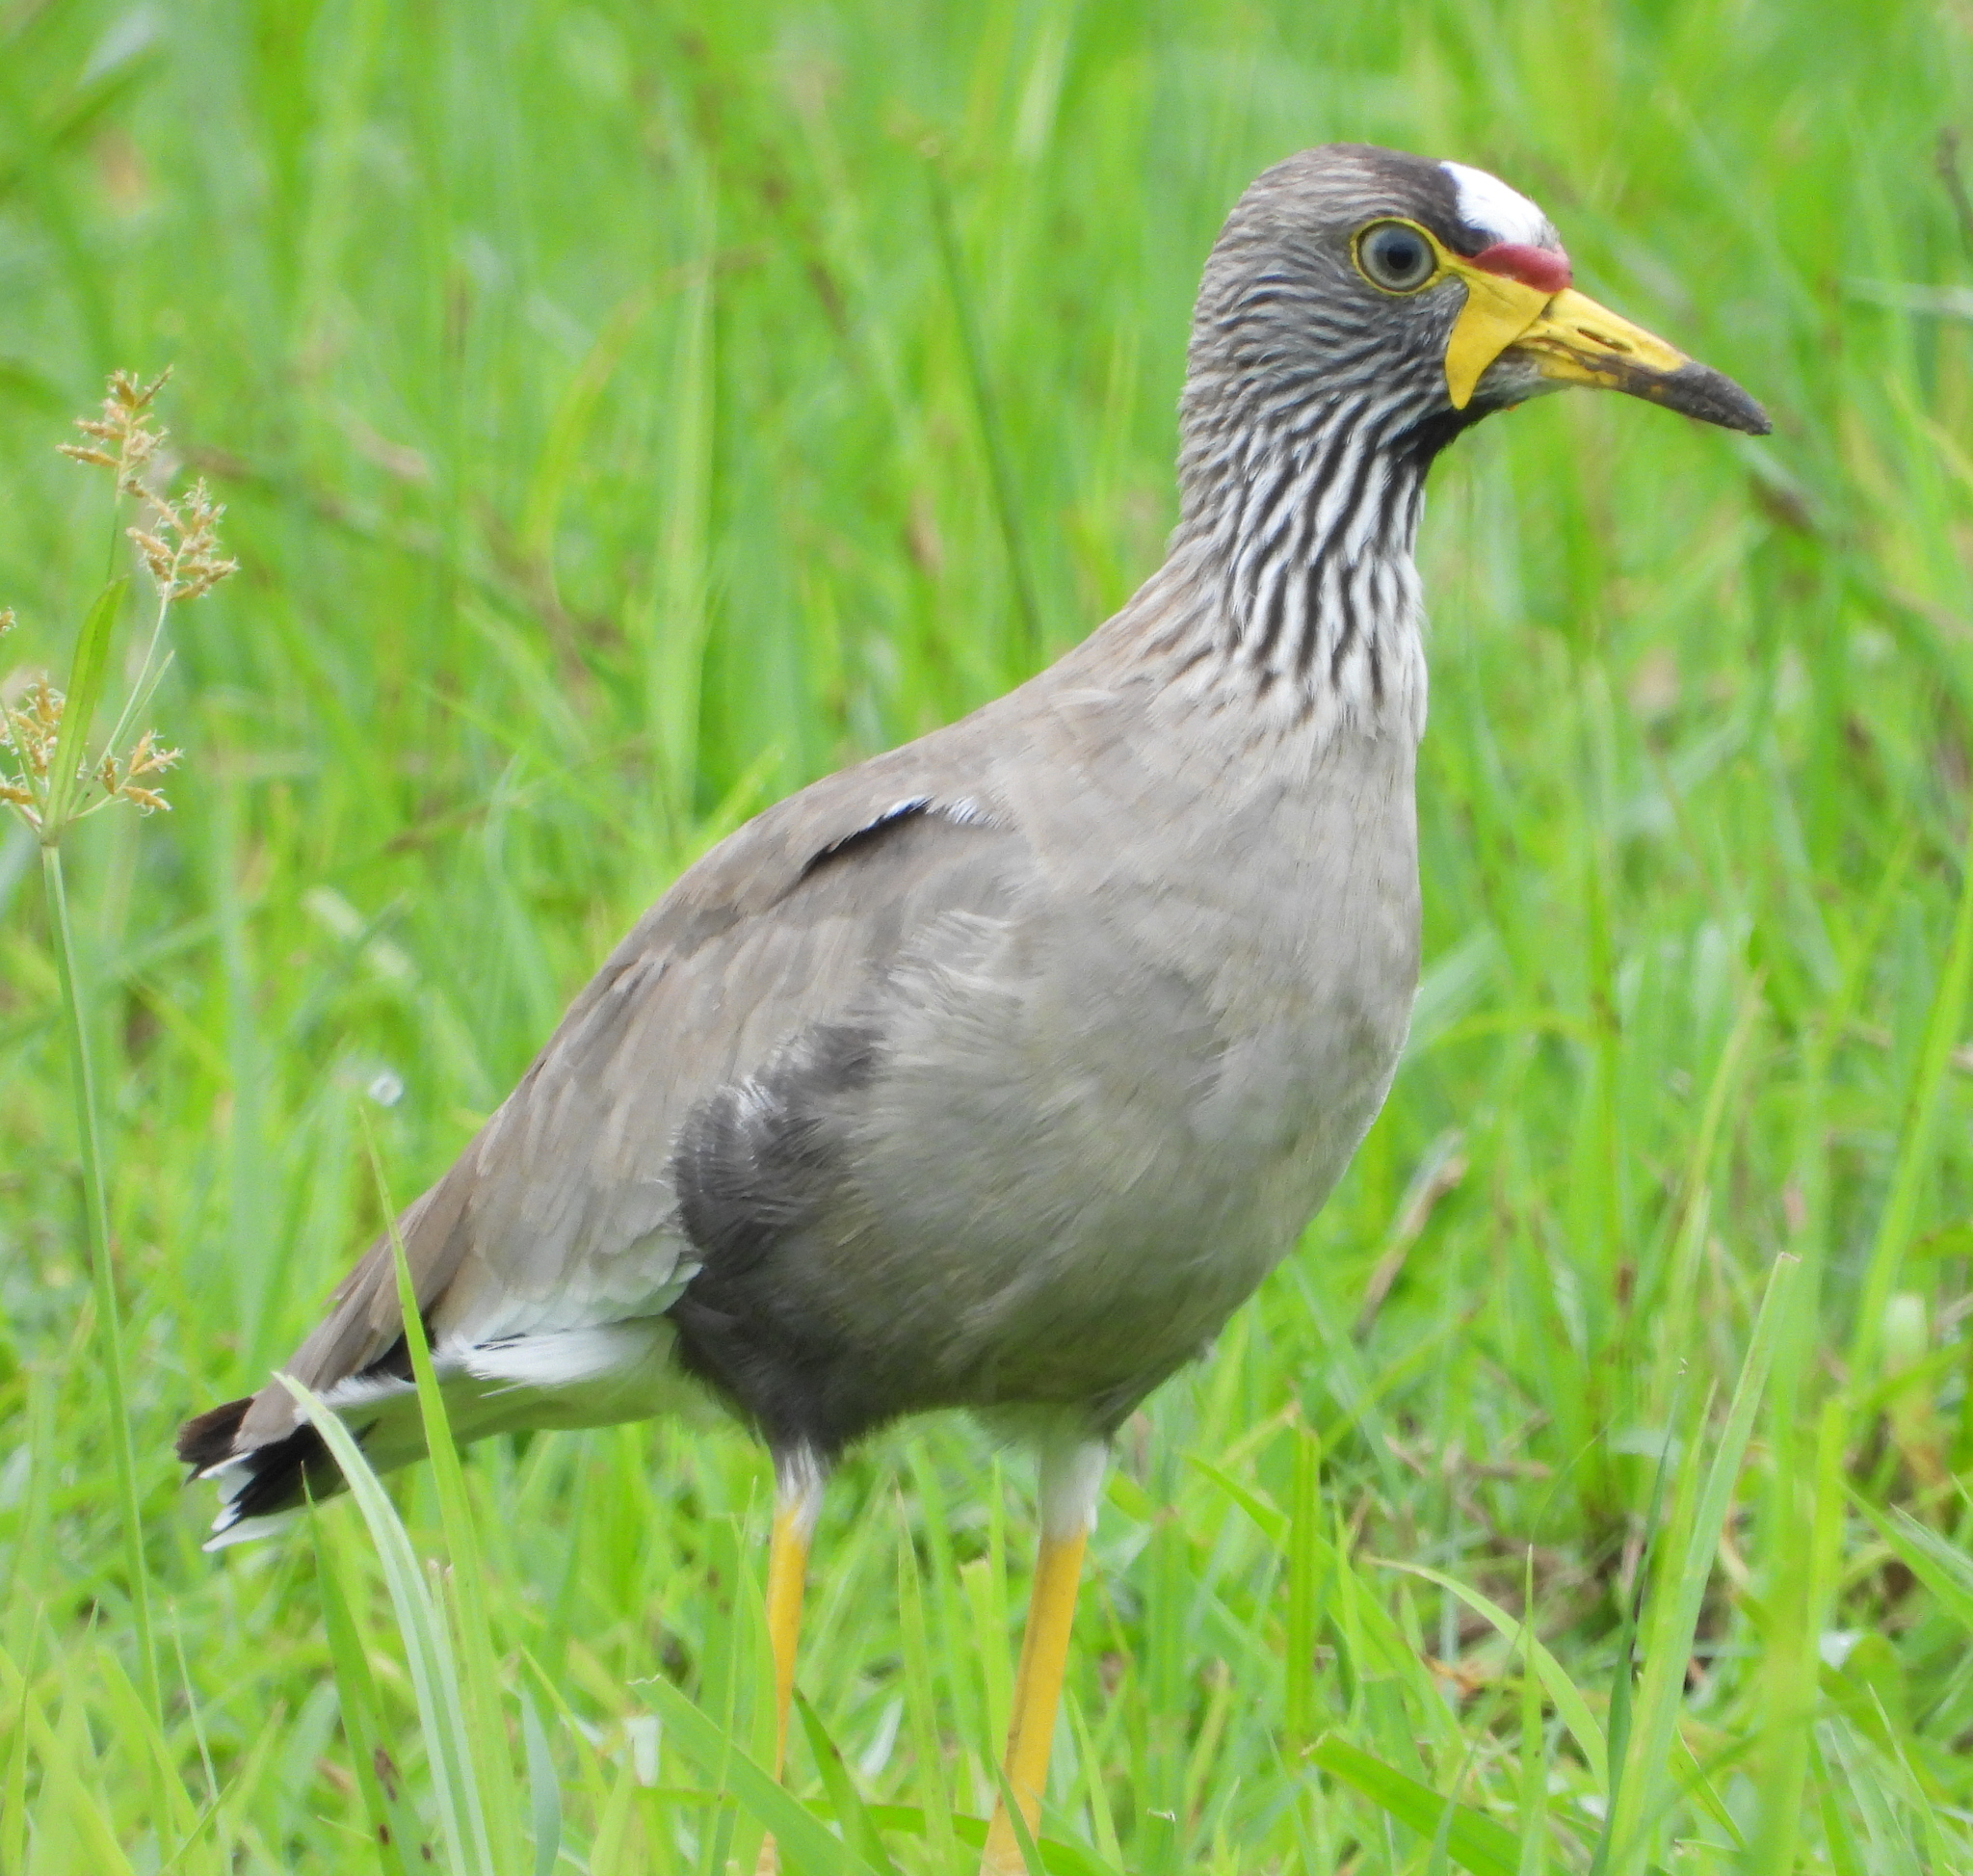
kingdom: Animalia
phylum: Chordata
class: Aves
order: Charadriiformes
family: Charadriidae
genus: Vanellus
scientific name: Vanellus senegallus
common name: African wattled lapwing
